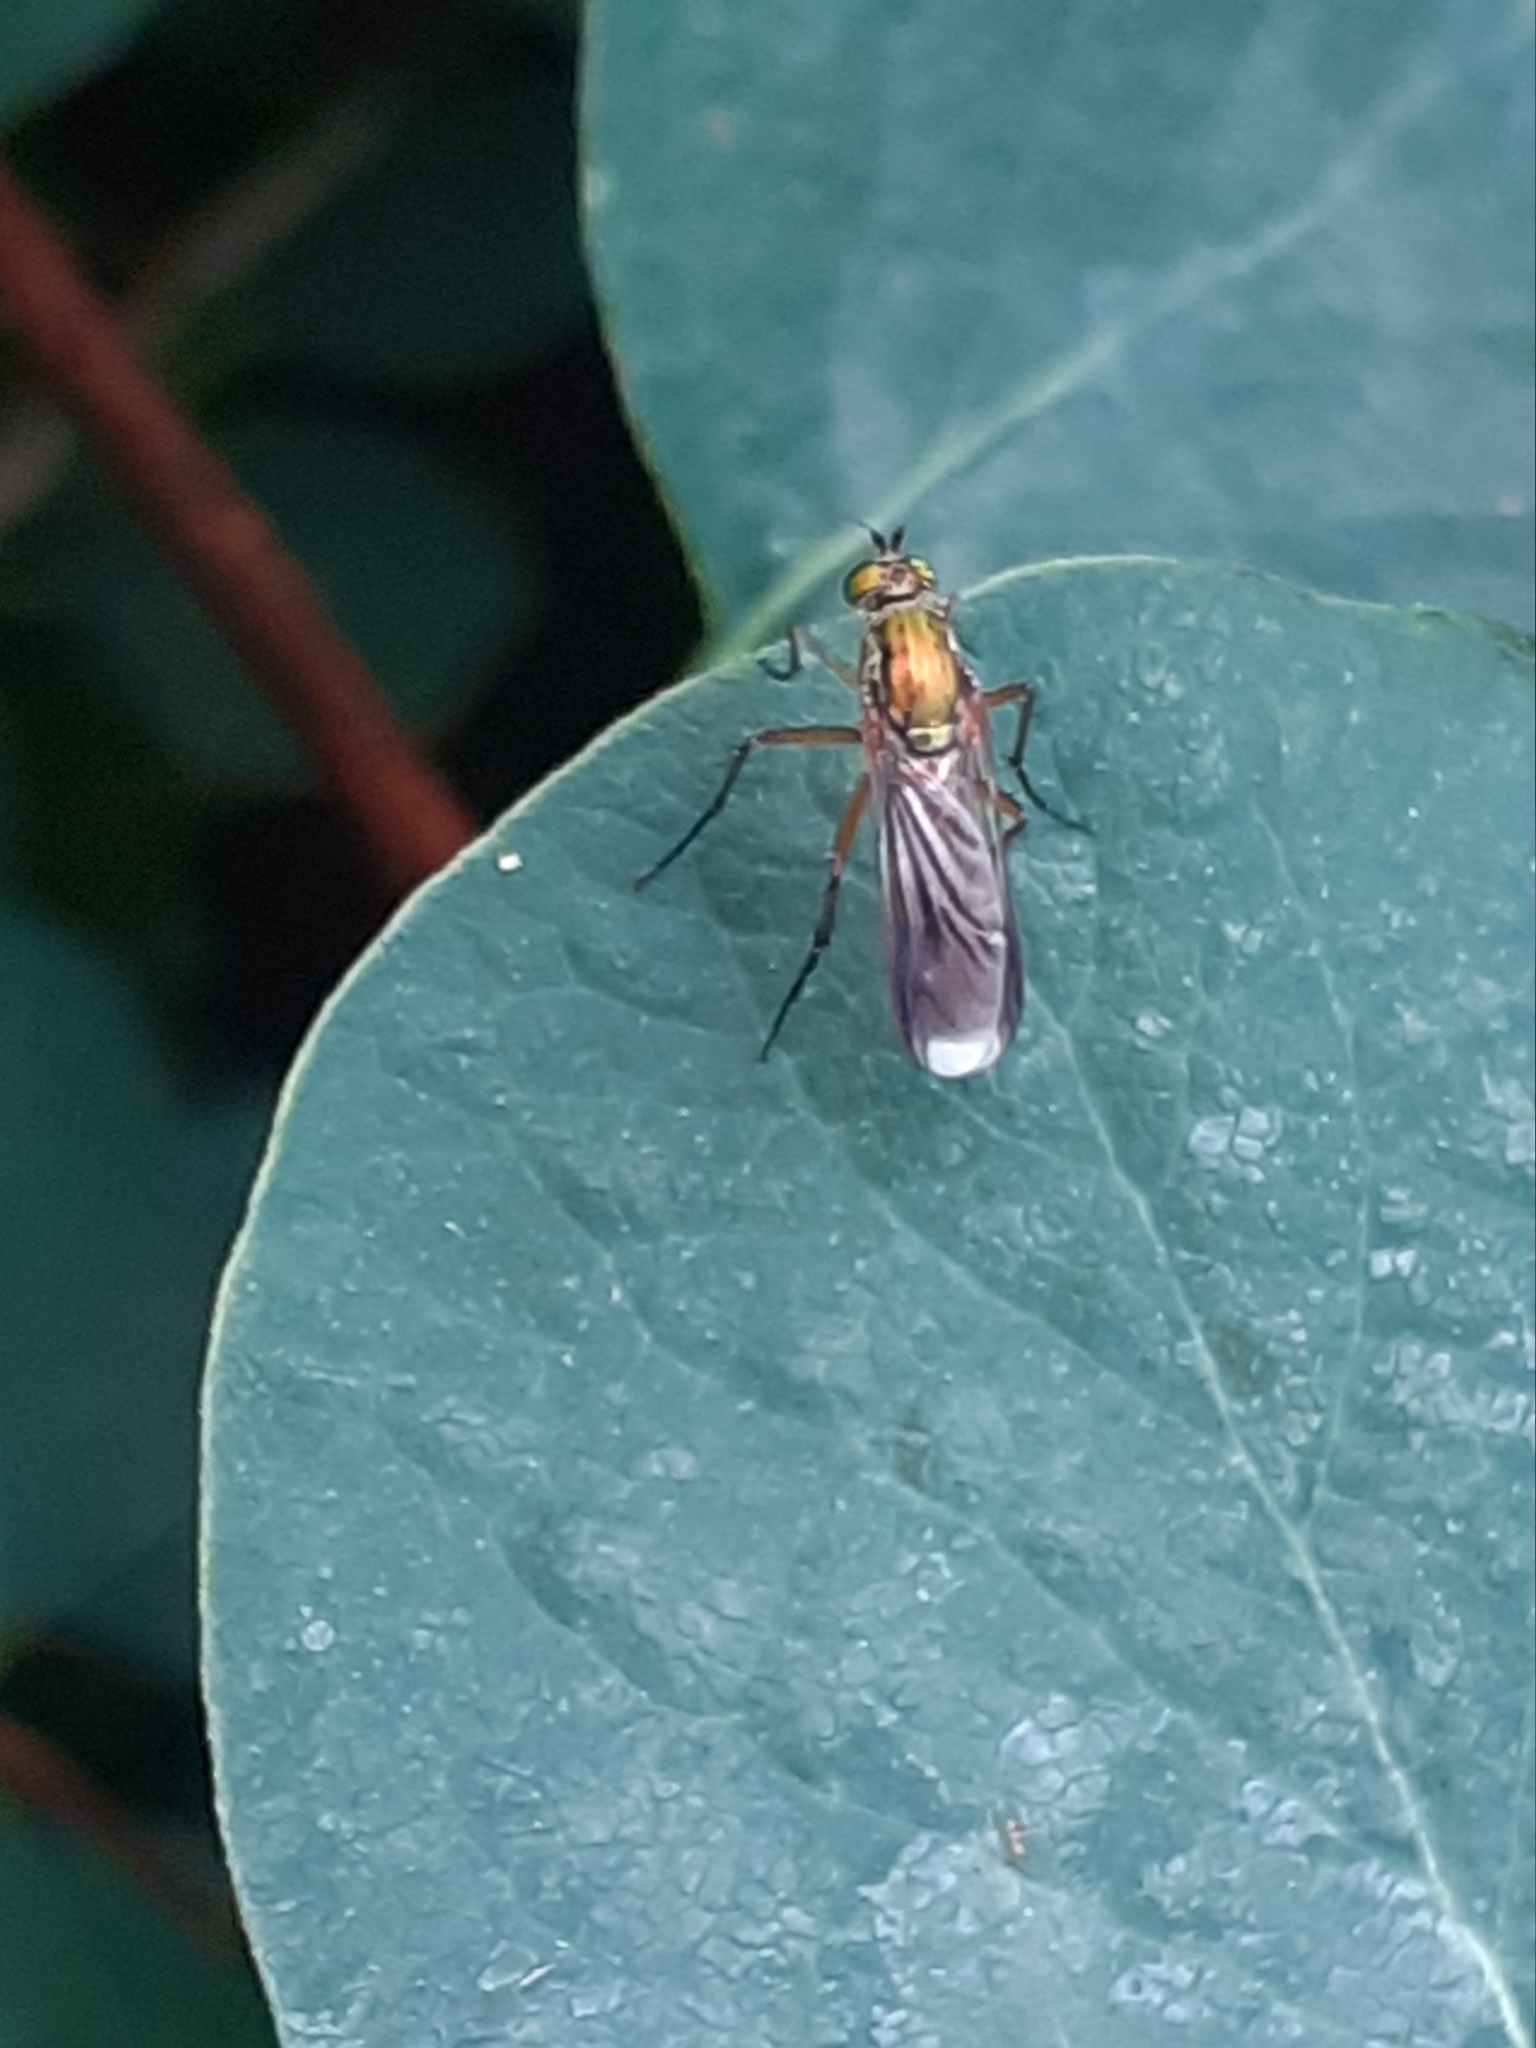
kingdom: Animalia
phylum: Arthropoda
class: Insecta
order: Diptera
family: Dolichopodidae
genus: Poecilobothrus
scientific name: Poecilobothrus nobilitatus
